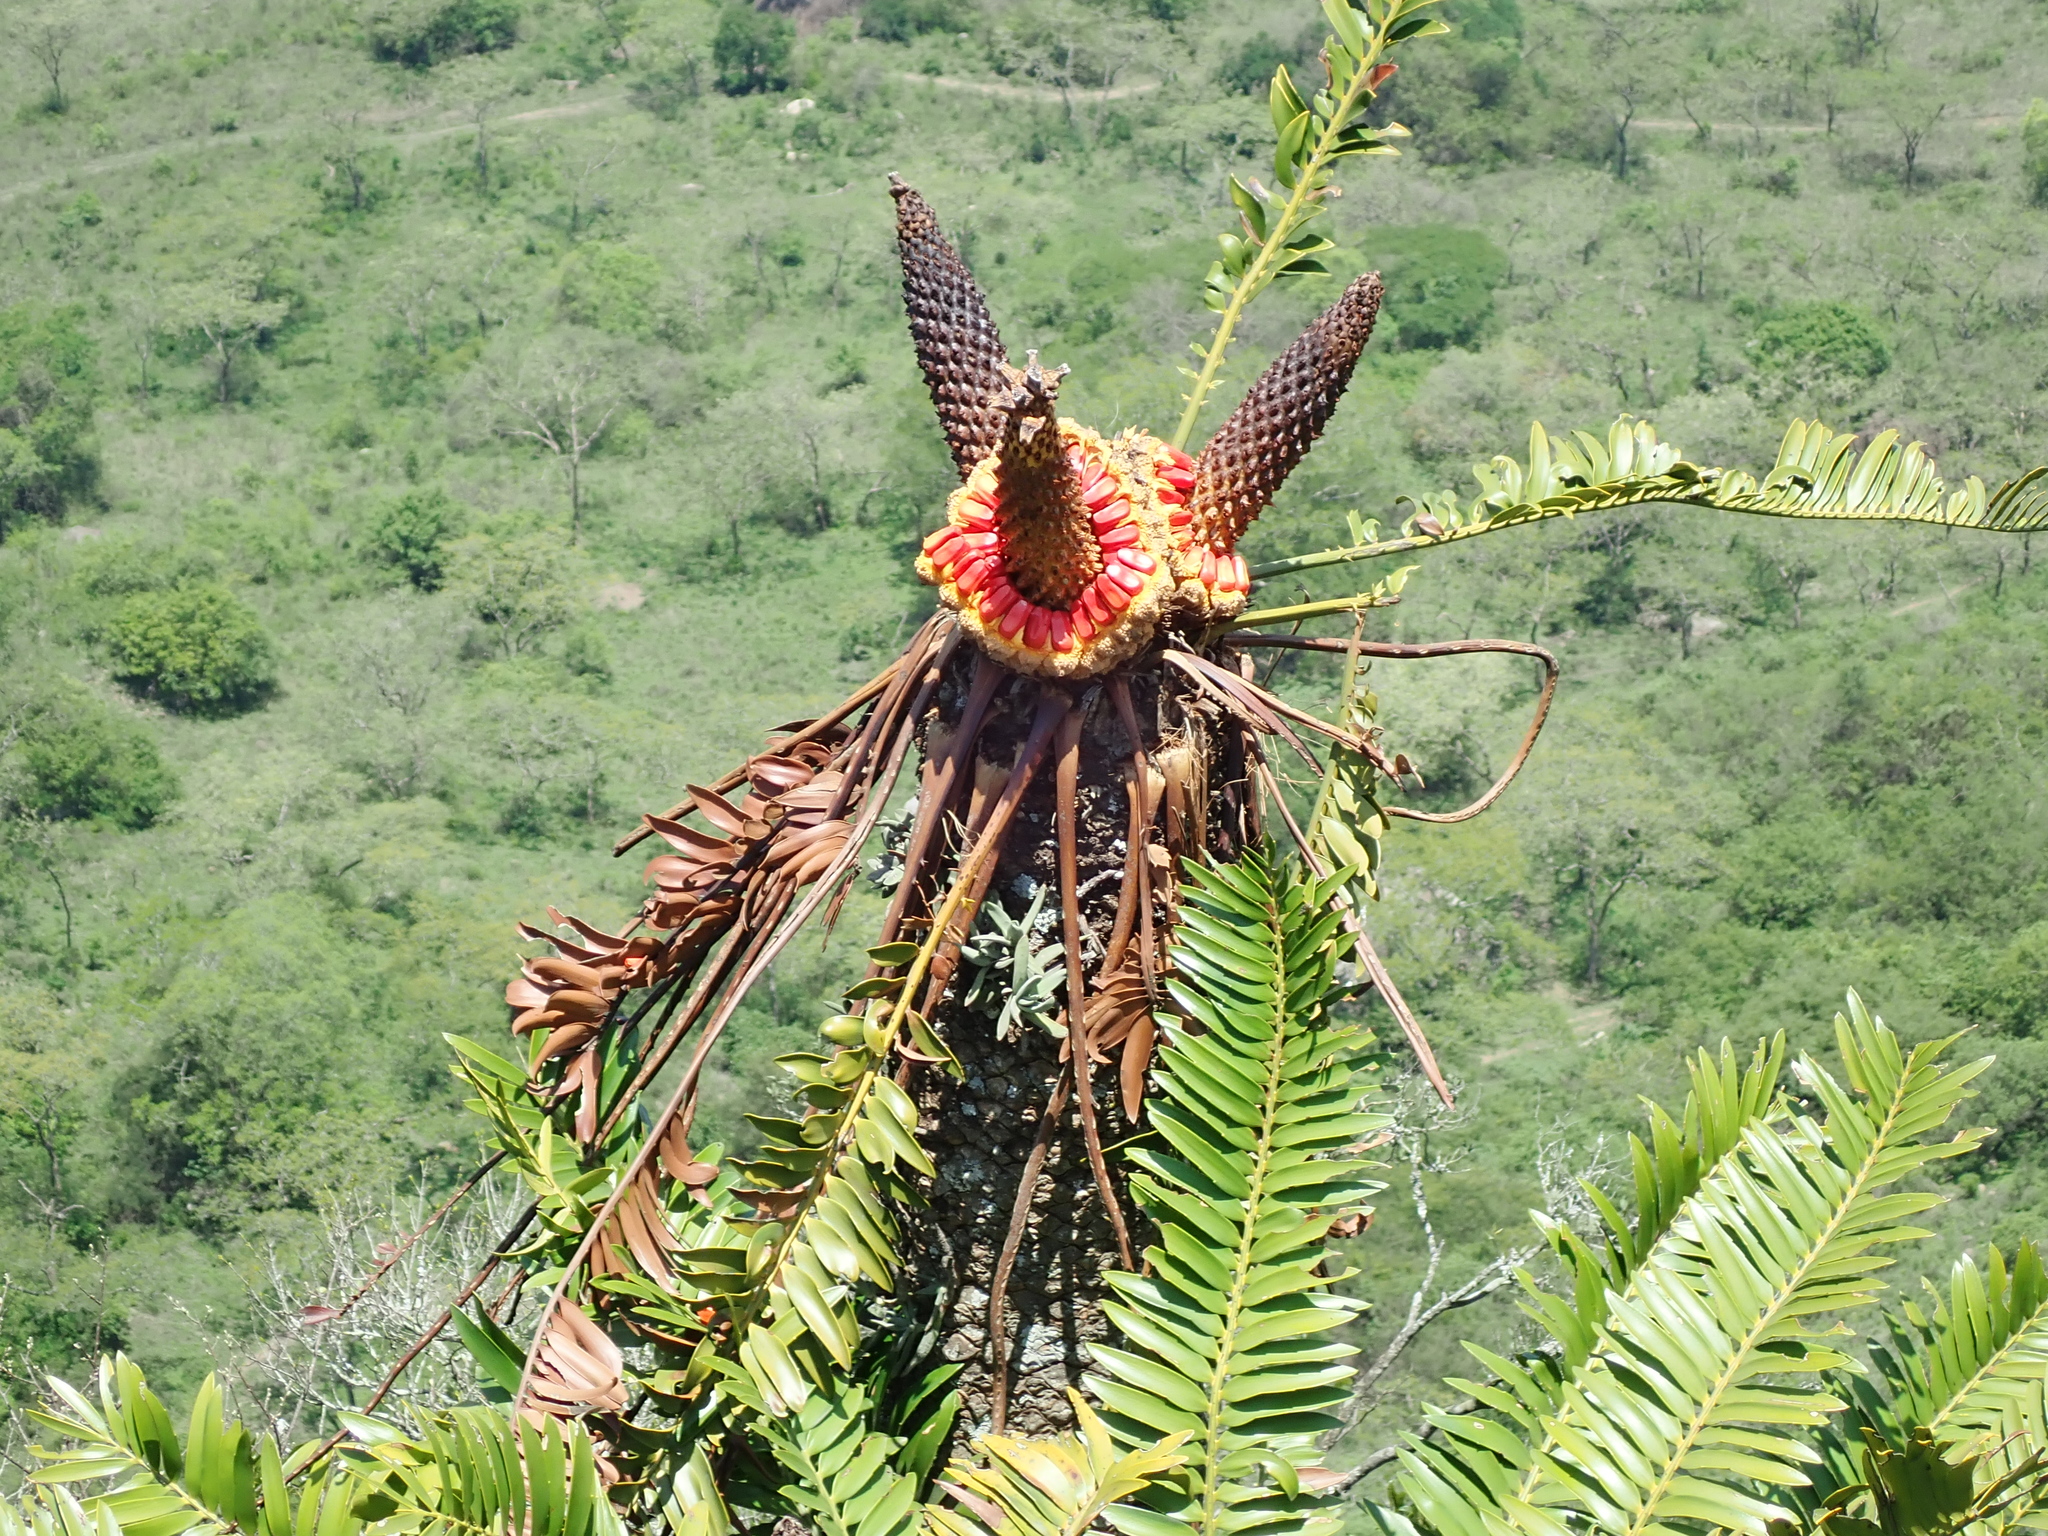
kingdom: Plantae
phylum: Tracheophyta
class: Cycadopsida
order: Cycadales
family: Zamiaceae
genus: Encephalartos
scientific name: Encephalartos natalensis
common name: Natal cycad
